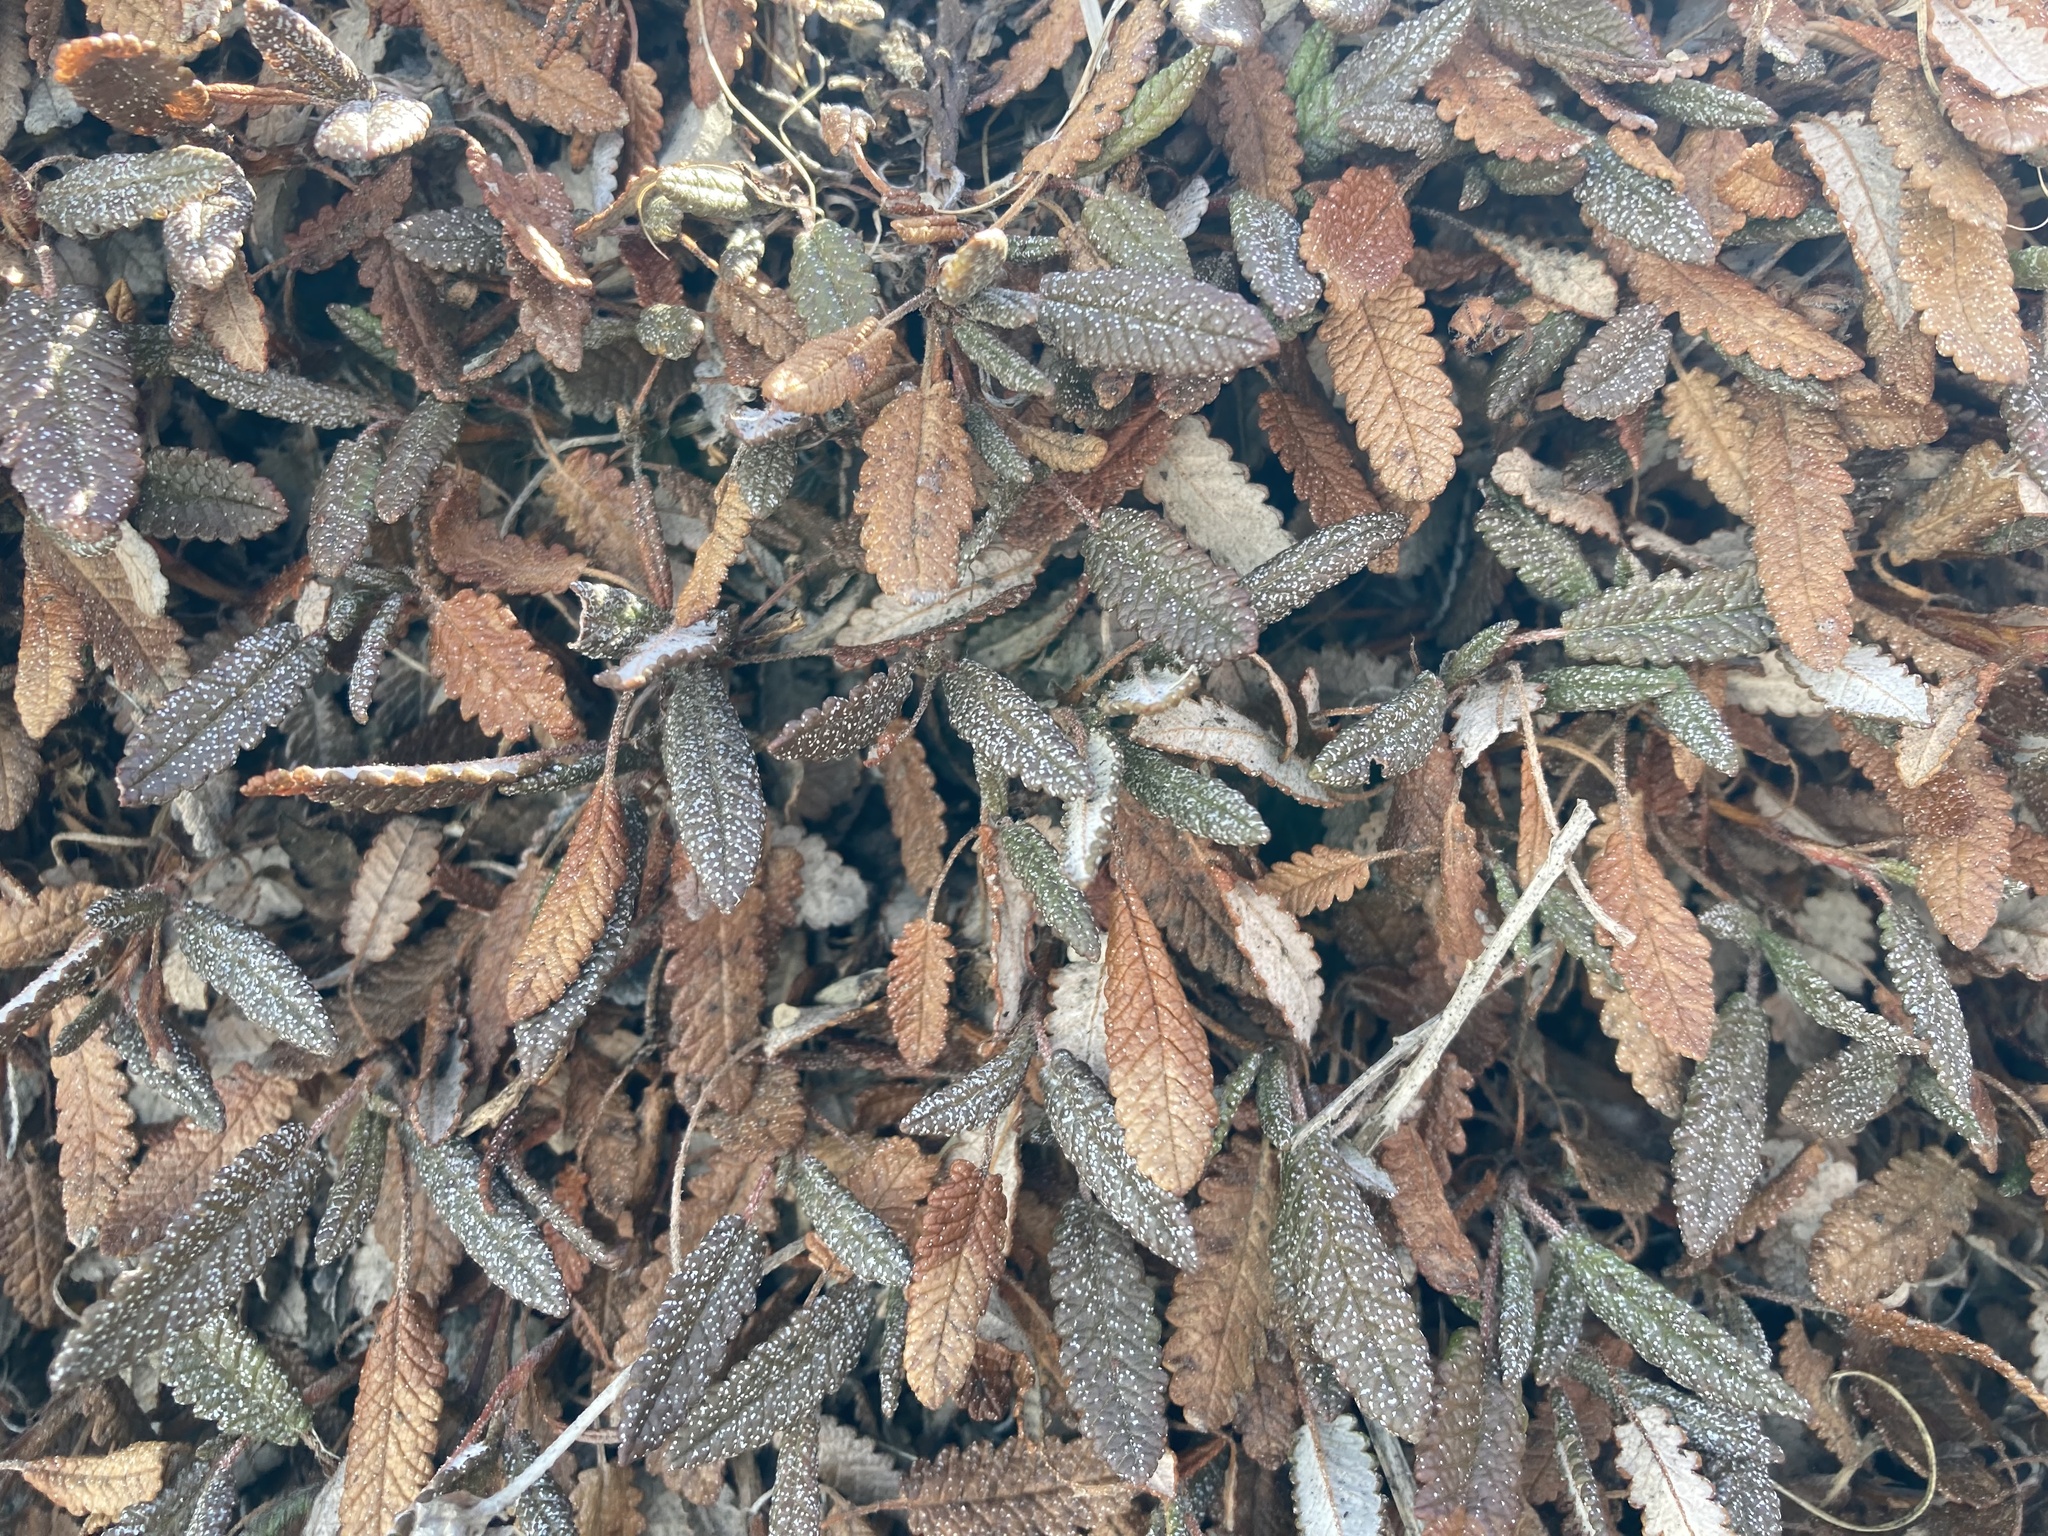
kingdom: Plantae
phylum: Tracheophyta
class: Magnoliopsida
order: Rosales
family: Rosaceae
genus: Dryas
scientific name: Dryas octopetala
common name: Eight-petal mountain-avens
